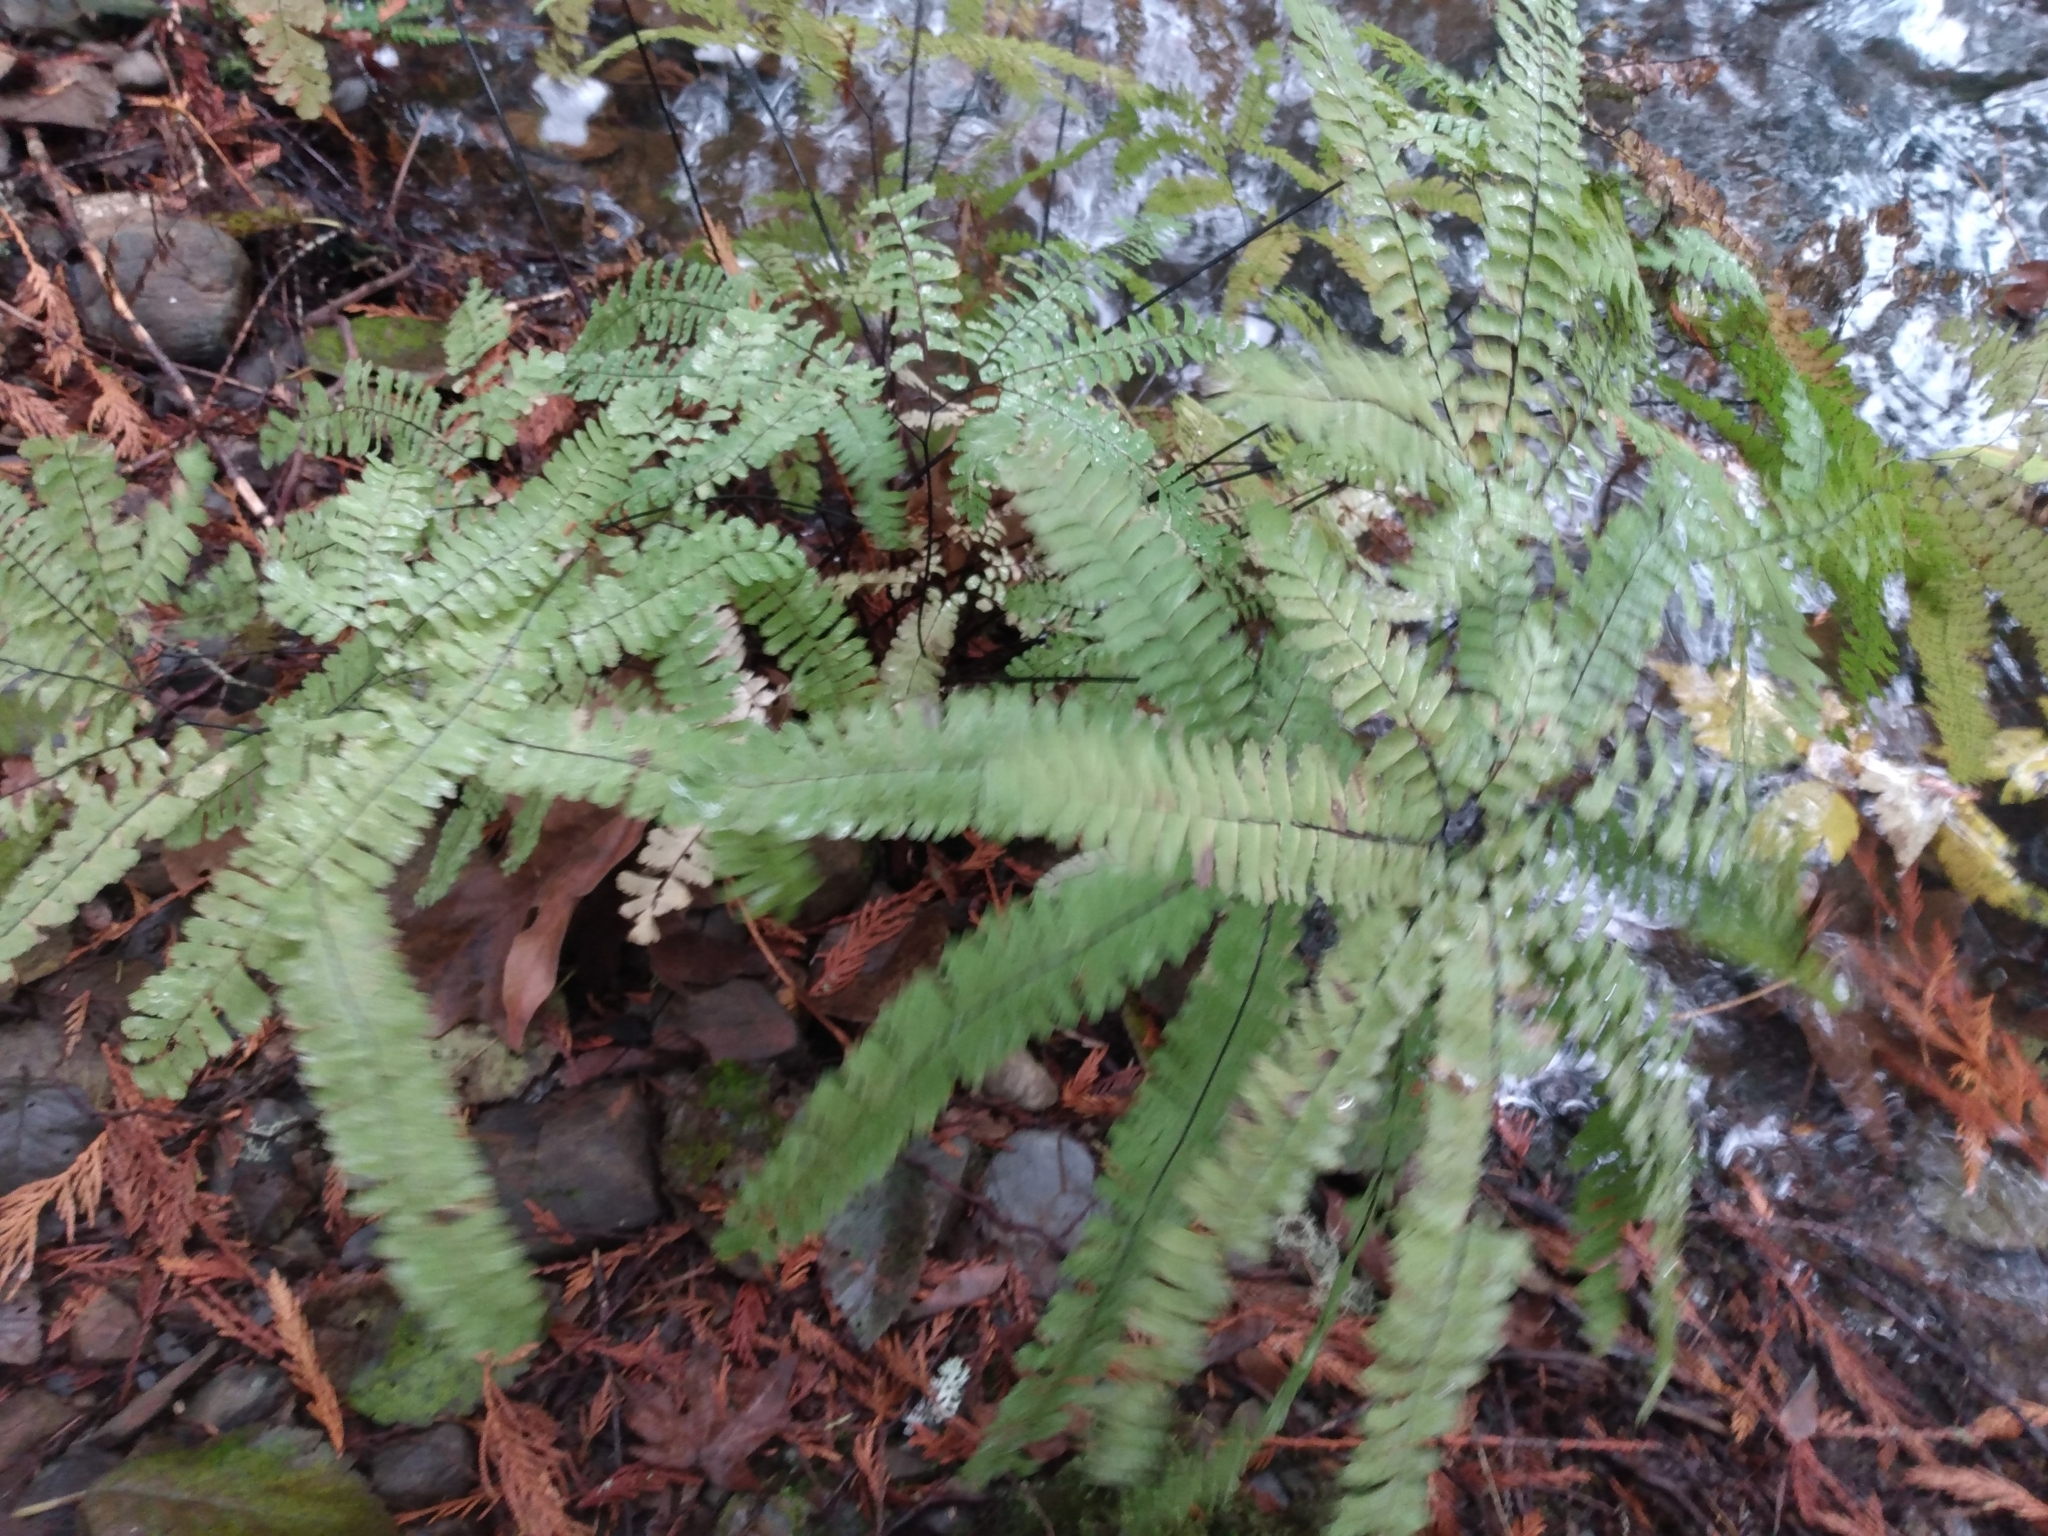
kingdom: Plantae
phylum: Tracheophyta
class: Polypodiopsida
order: Polypodiales
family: Pteridaceae
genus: Adiantum
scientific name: Adiantum aleuticum
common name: Aleutian maidenhair fern
